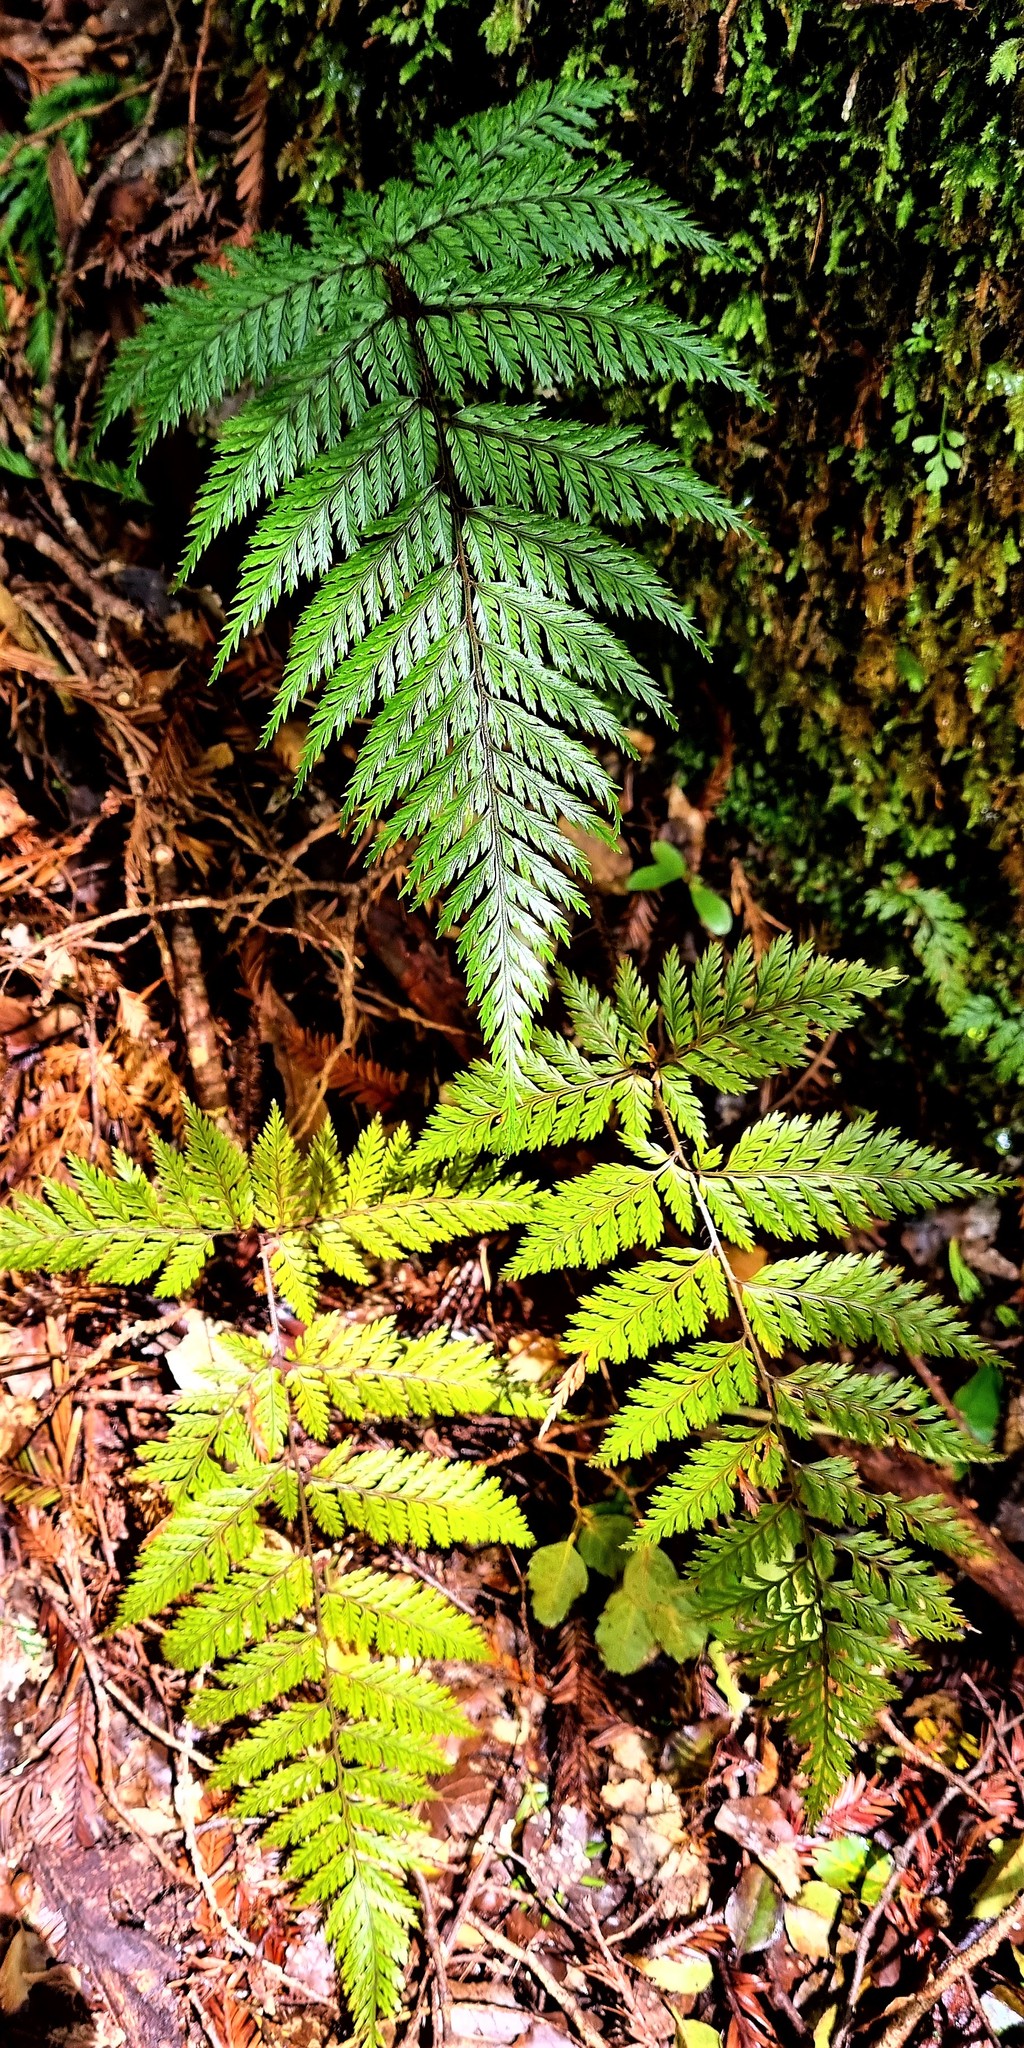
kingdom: Plantae
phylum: Tracheophyta
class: Polypodiopsida
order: Polypodiales
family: Dryopteridaceae
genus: Lastreopsis
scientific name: Lastreopsis hispida
